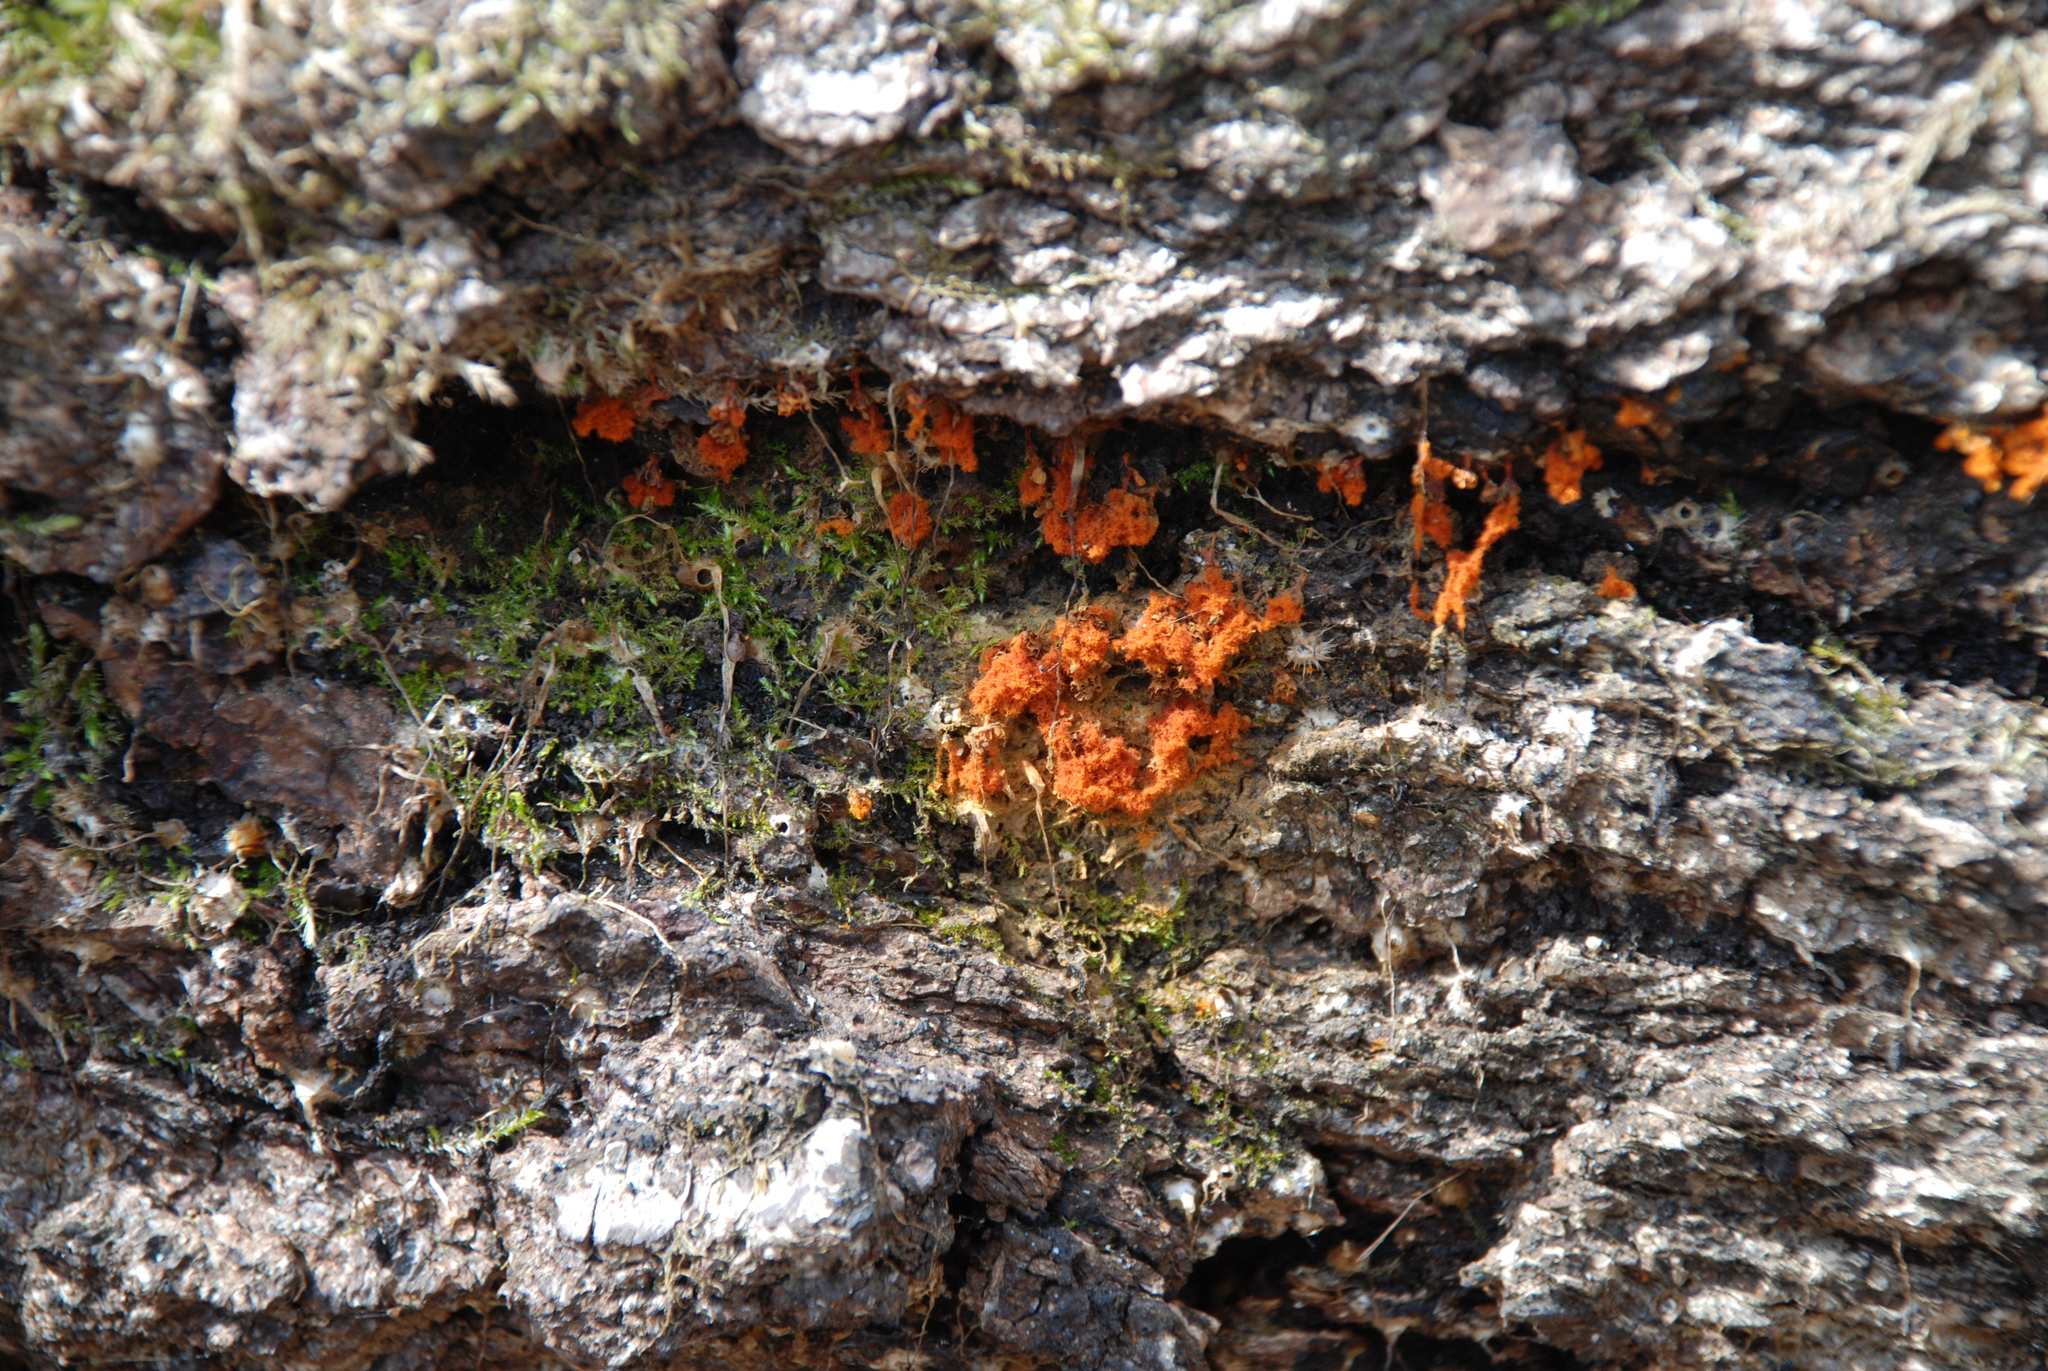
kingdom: Protozoa
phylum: Mycetozoa
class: Myxomycetes
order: Trichiales
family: Trichiaceae
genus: Metatrichia
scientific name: Metatrichia vesparia
